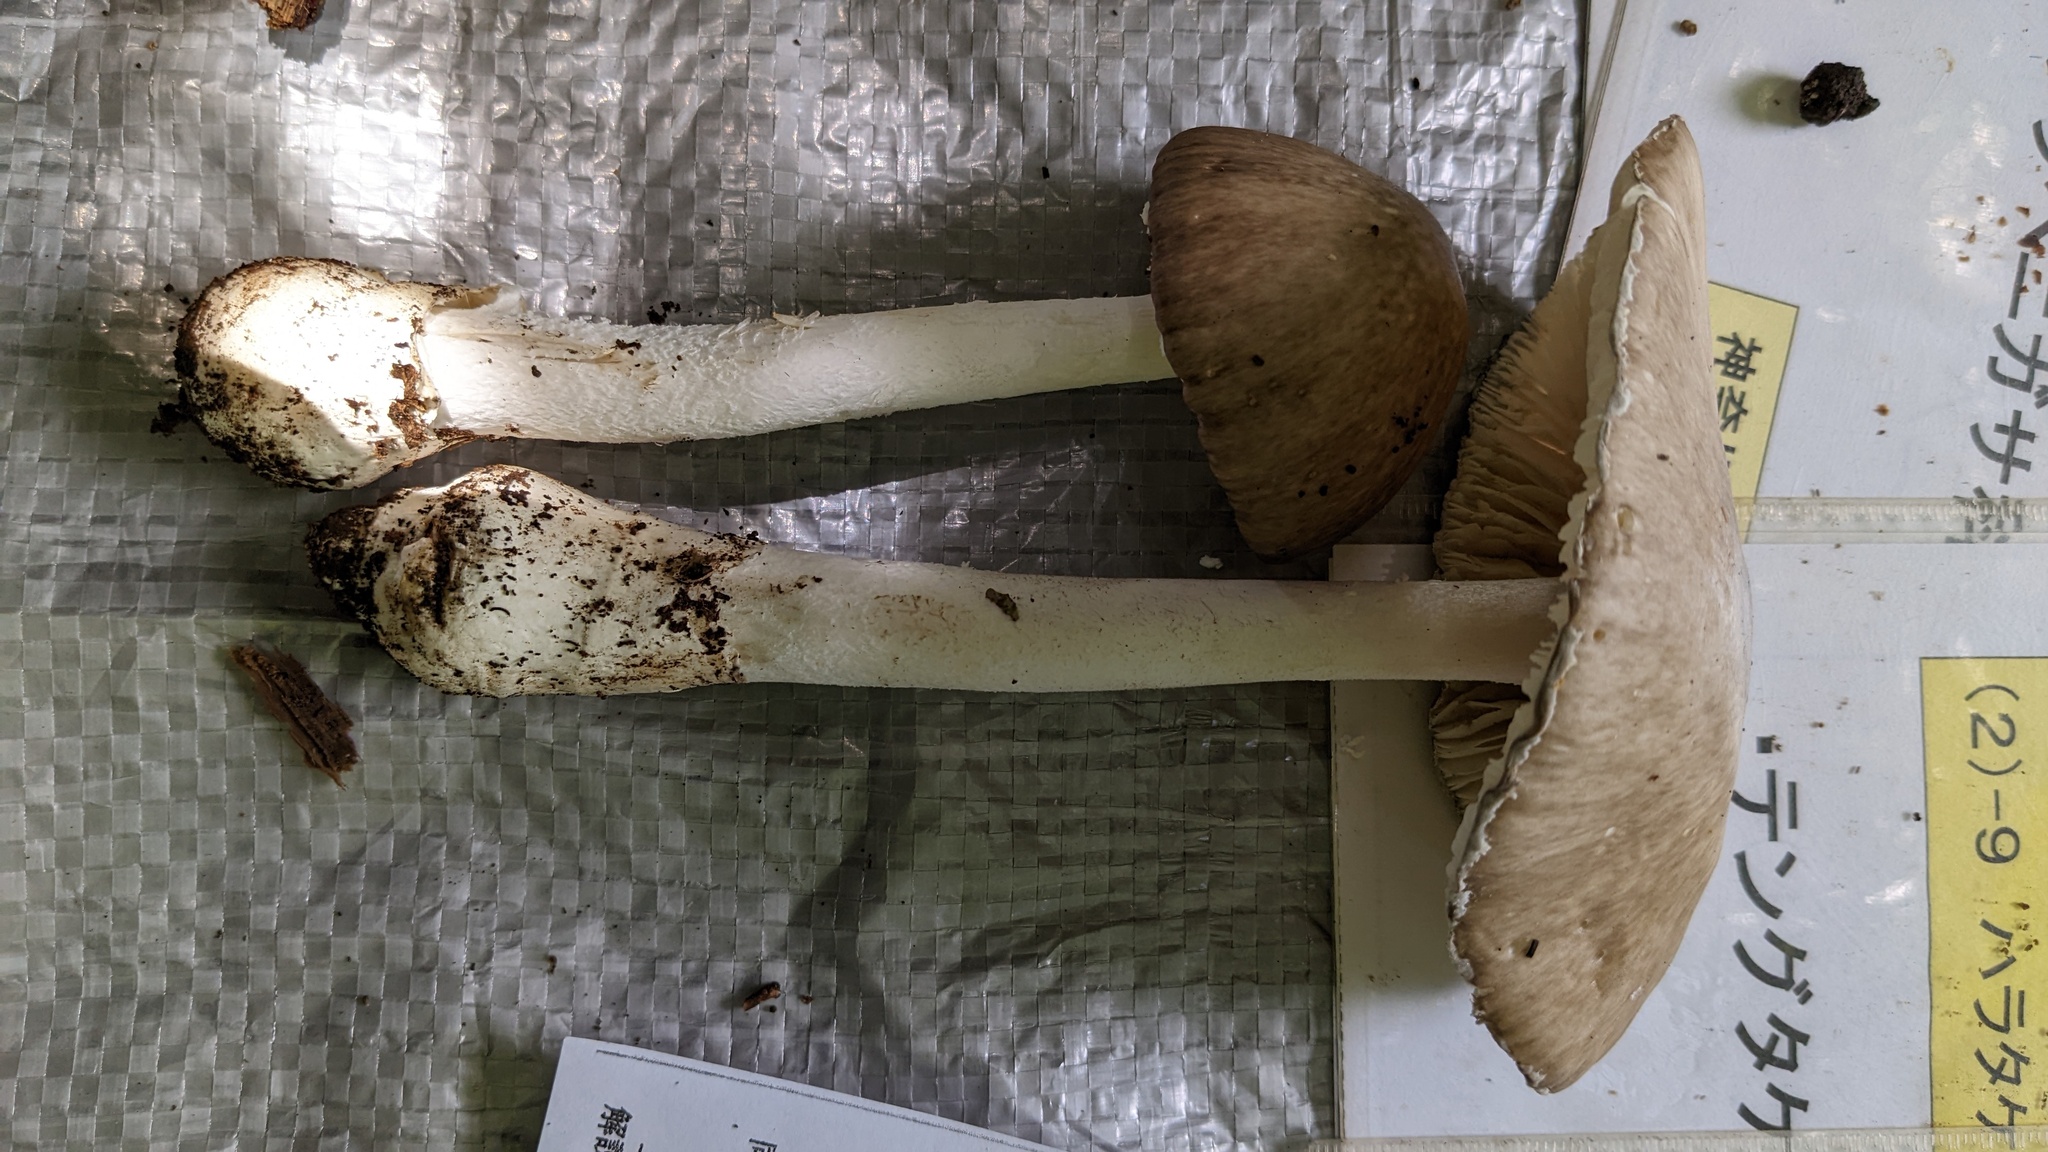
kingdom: Fungi
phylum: Basidiomycota
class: Agaricomycetes
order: Agaricales
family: Amanitaceae
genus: Amanita
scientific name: Amanita pseudoporphyria
